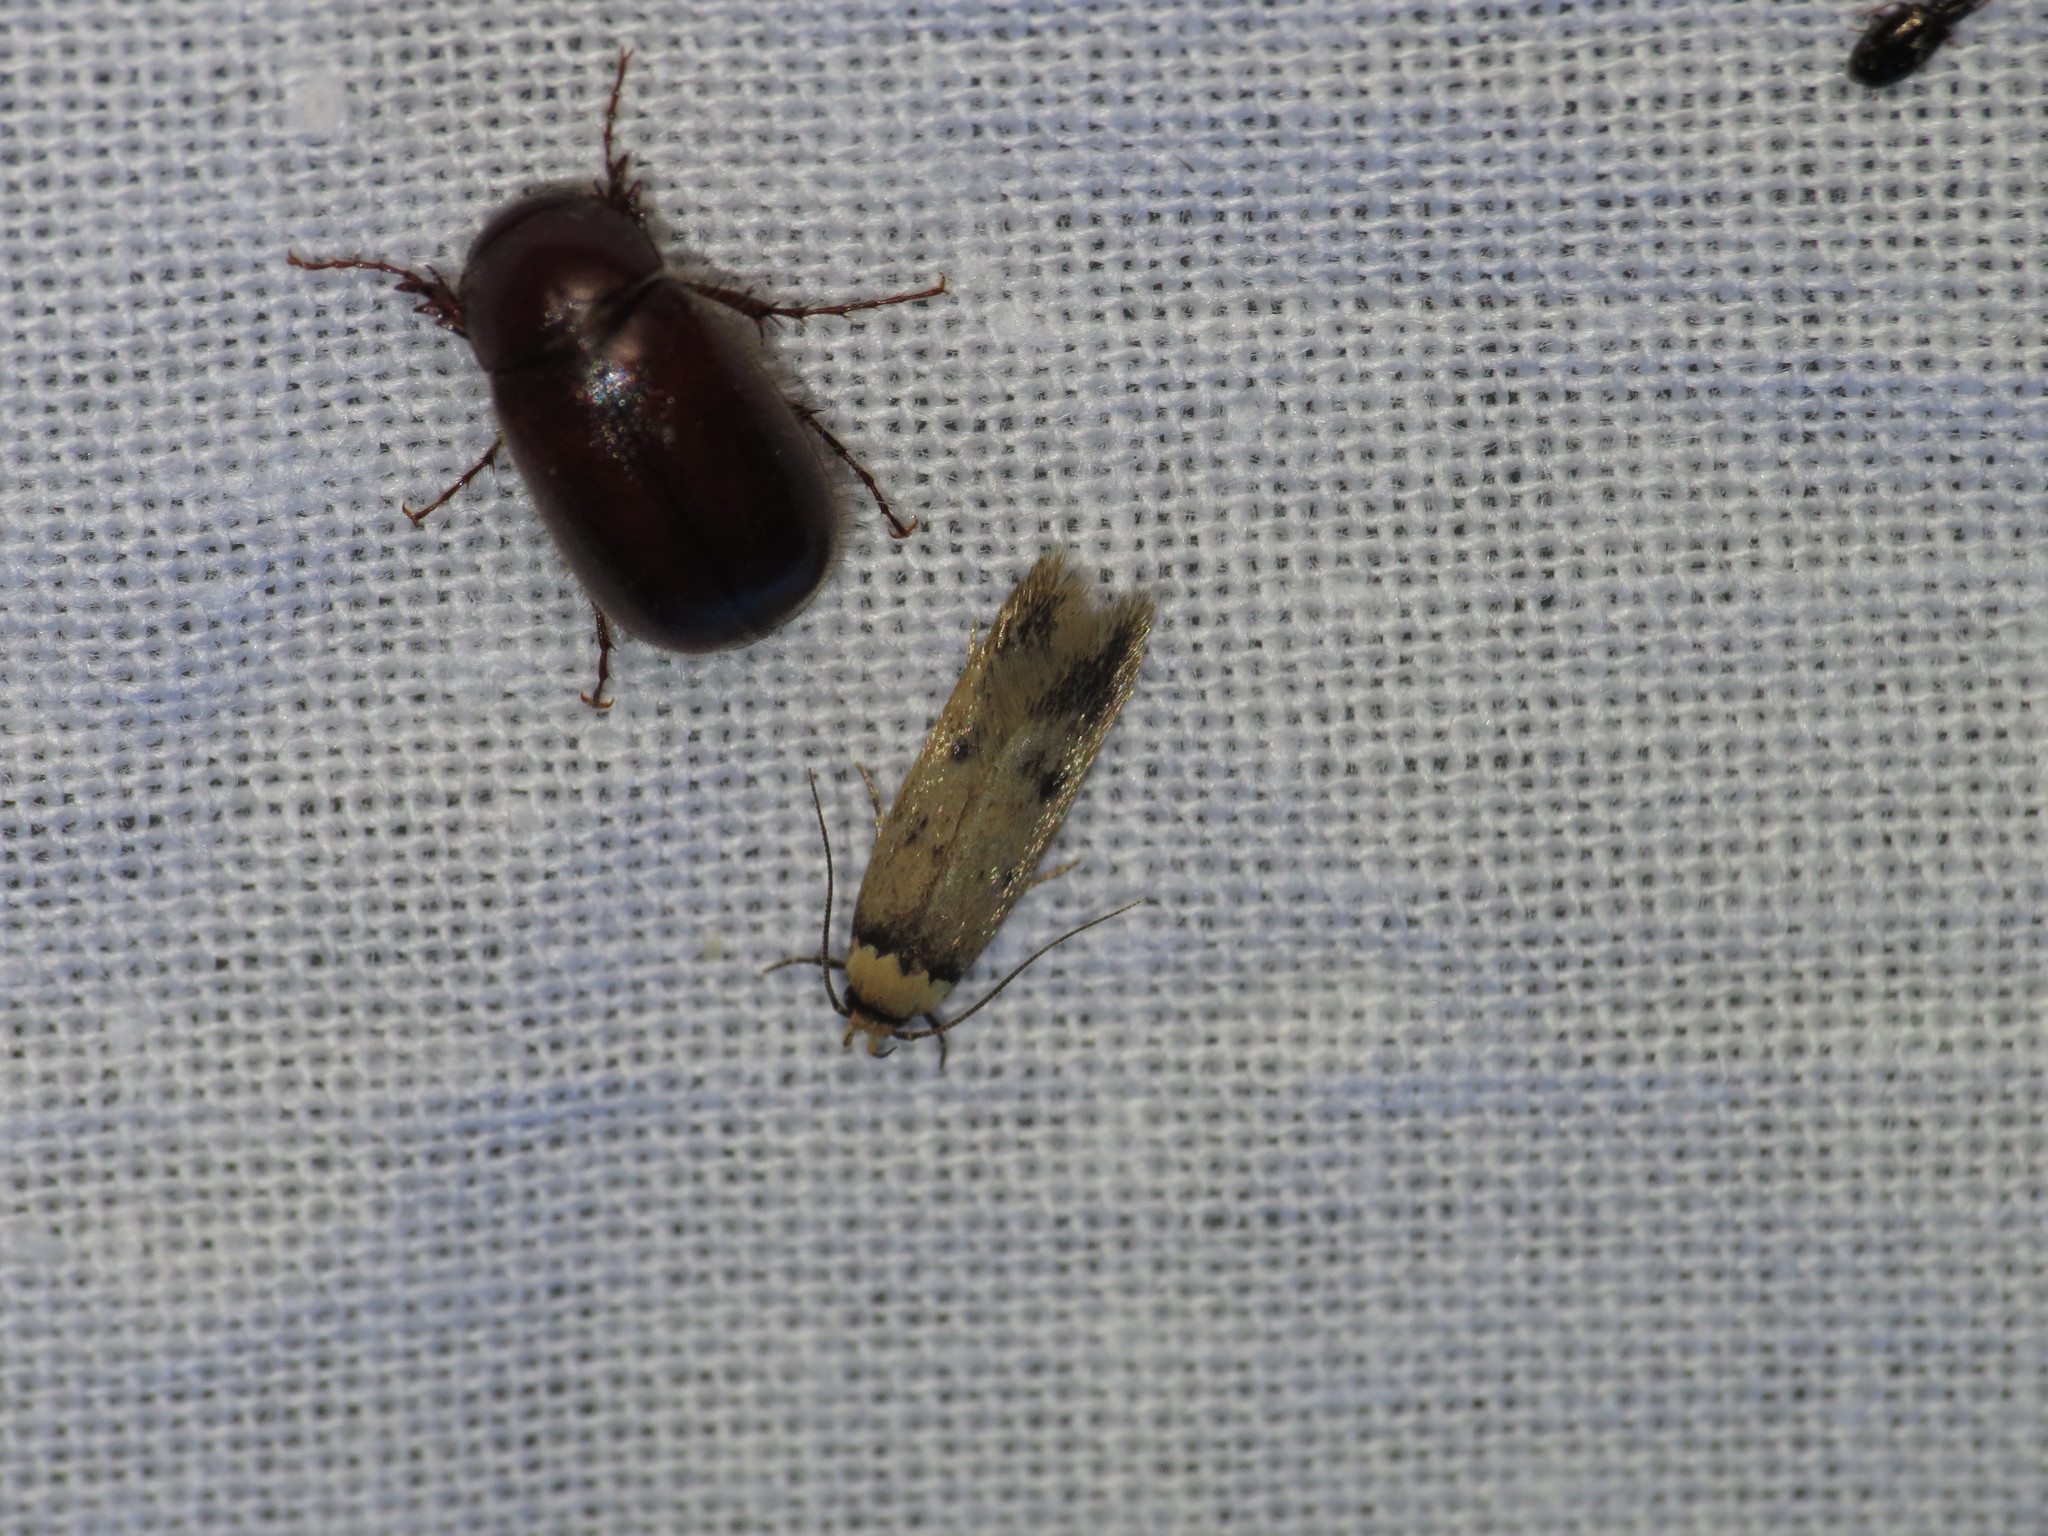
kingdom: Animalia
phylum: Arthropoda
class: Insecta
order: Lepidoptera
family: Oecophoridae
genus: Mimobrachyoma
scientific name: Mimobrachyoma pseudopis
